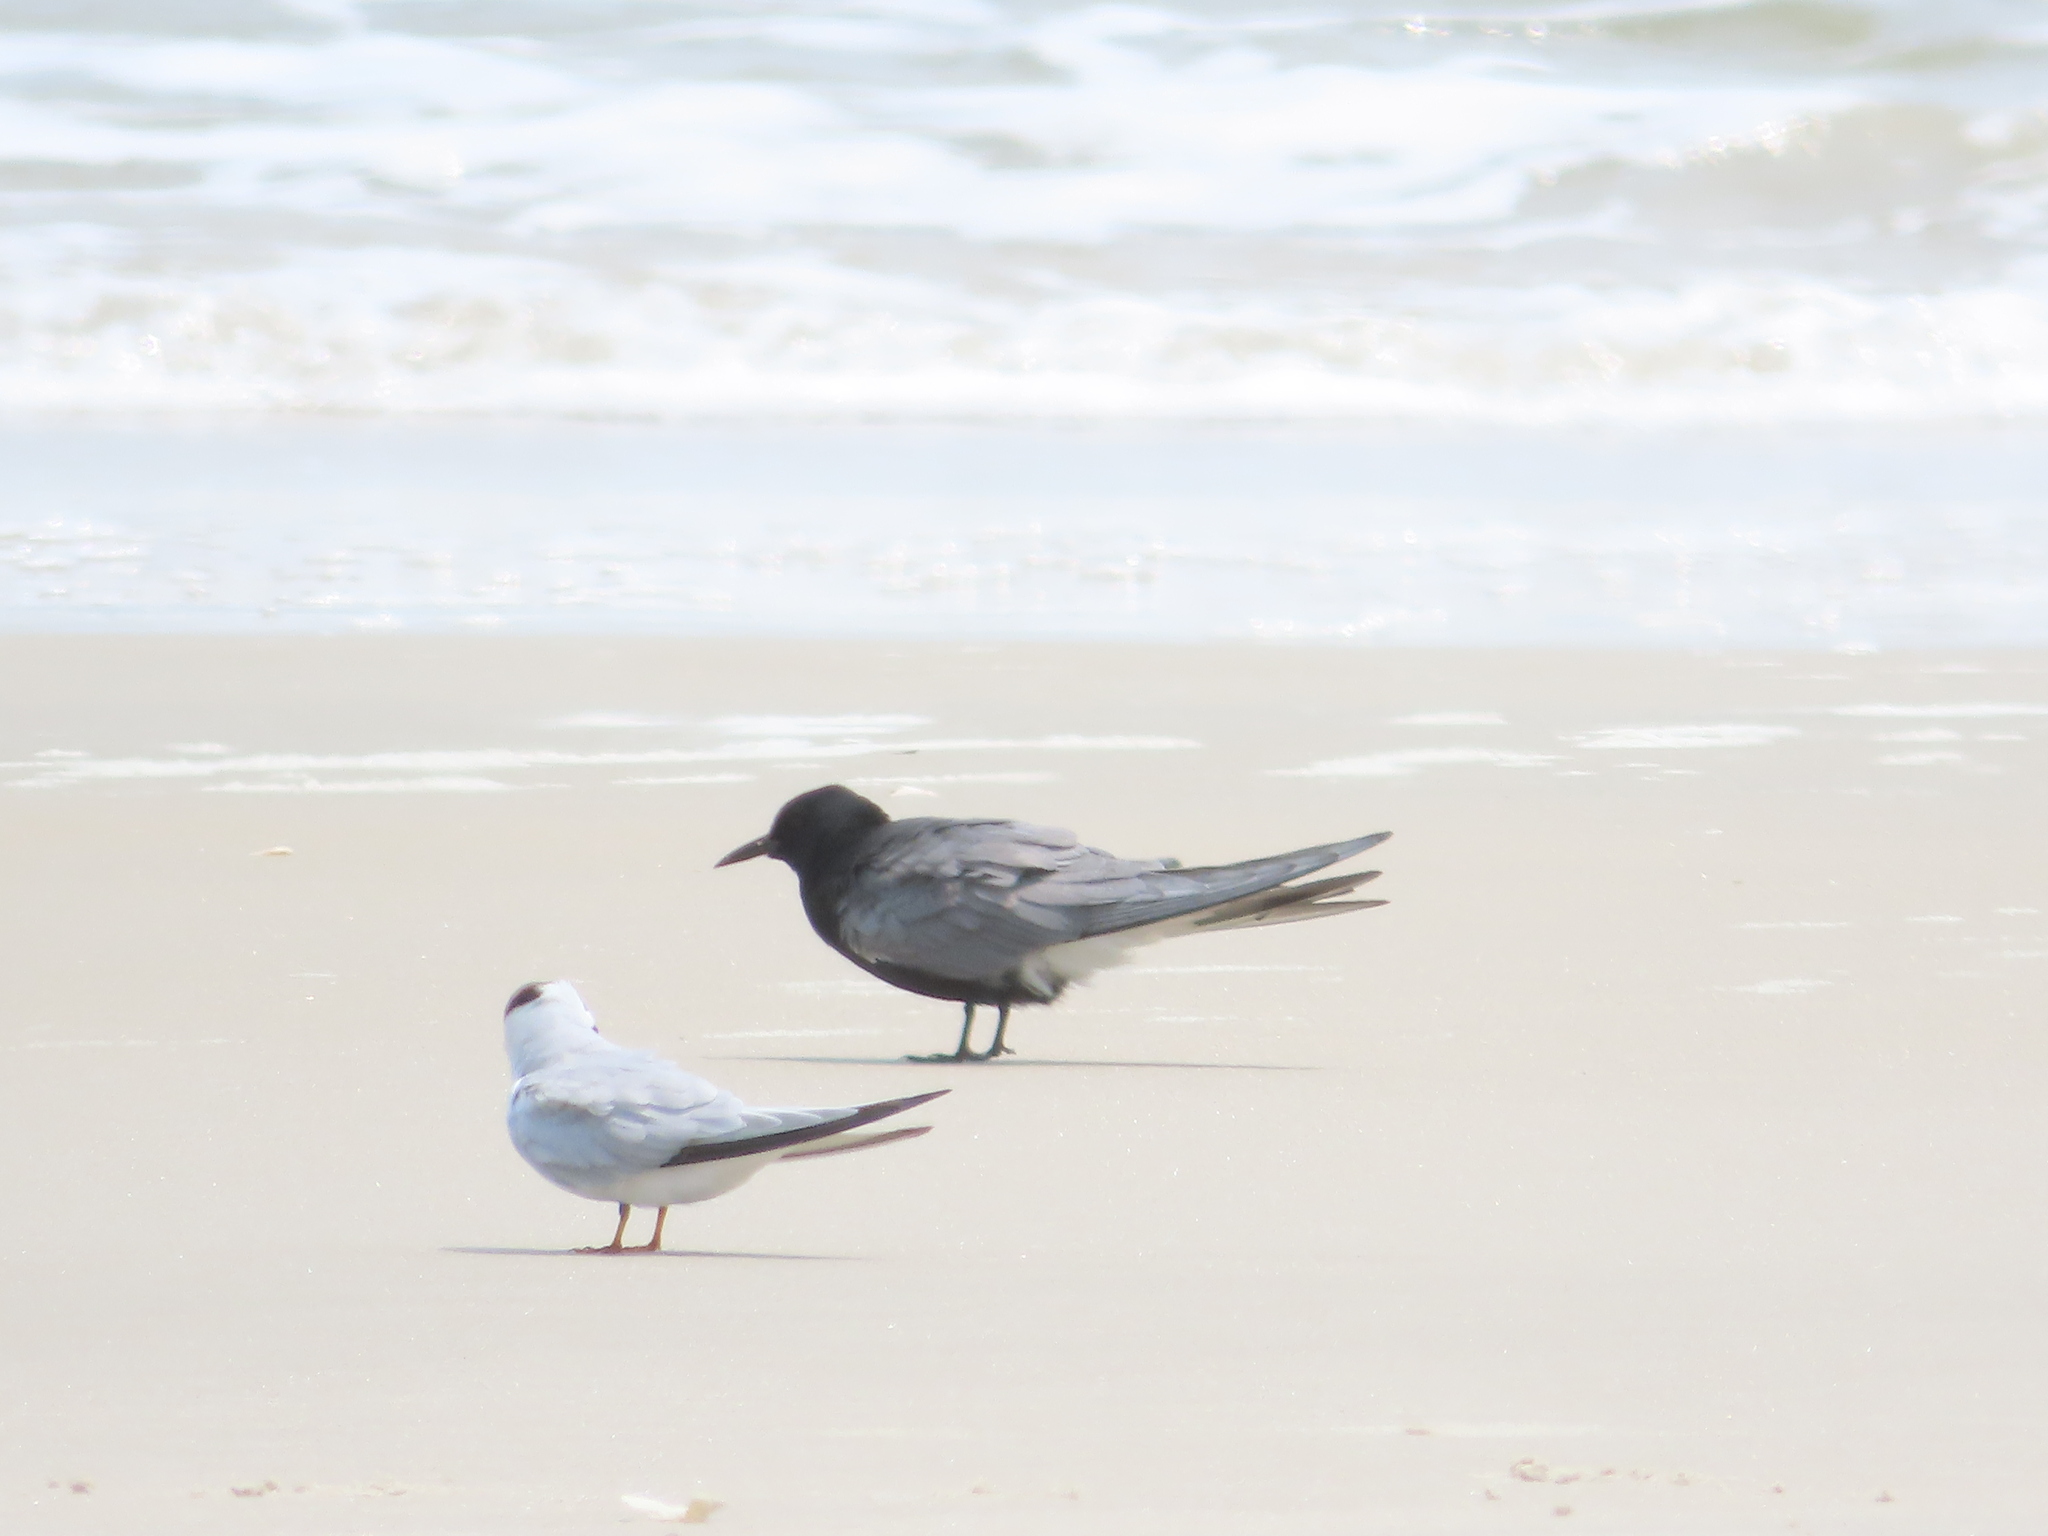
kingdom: Animalia
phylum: Chordata
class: Aves
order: Charadriiformes
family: Laridae
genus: Chlidonias
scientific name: Chlidonias niger
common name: Black tern
